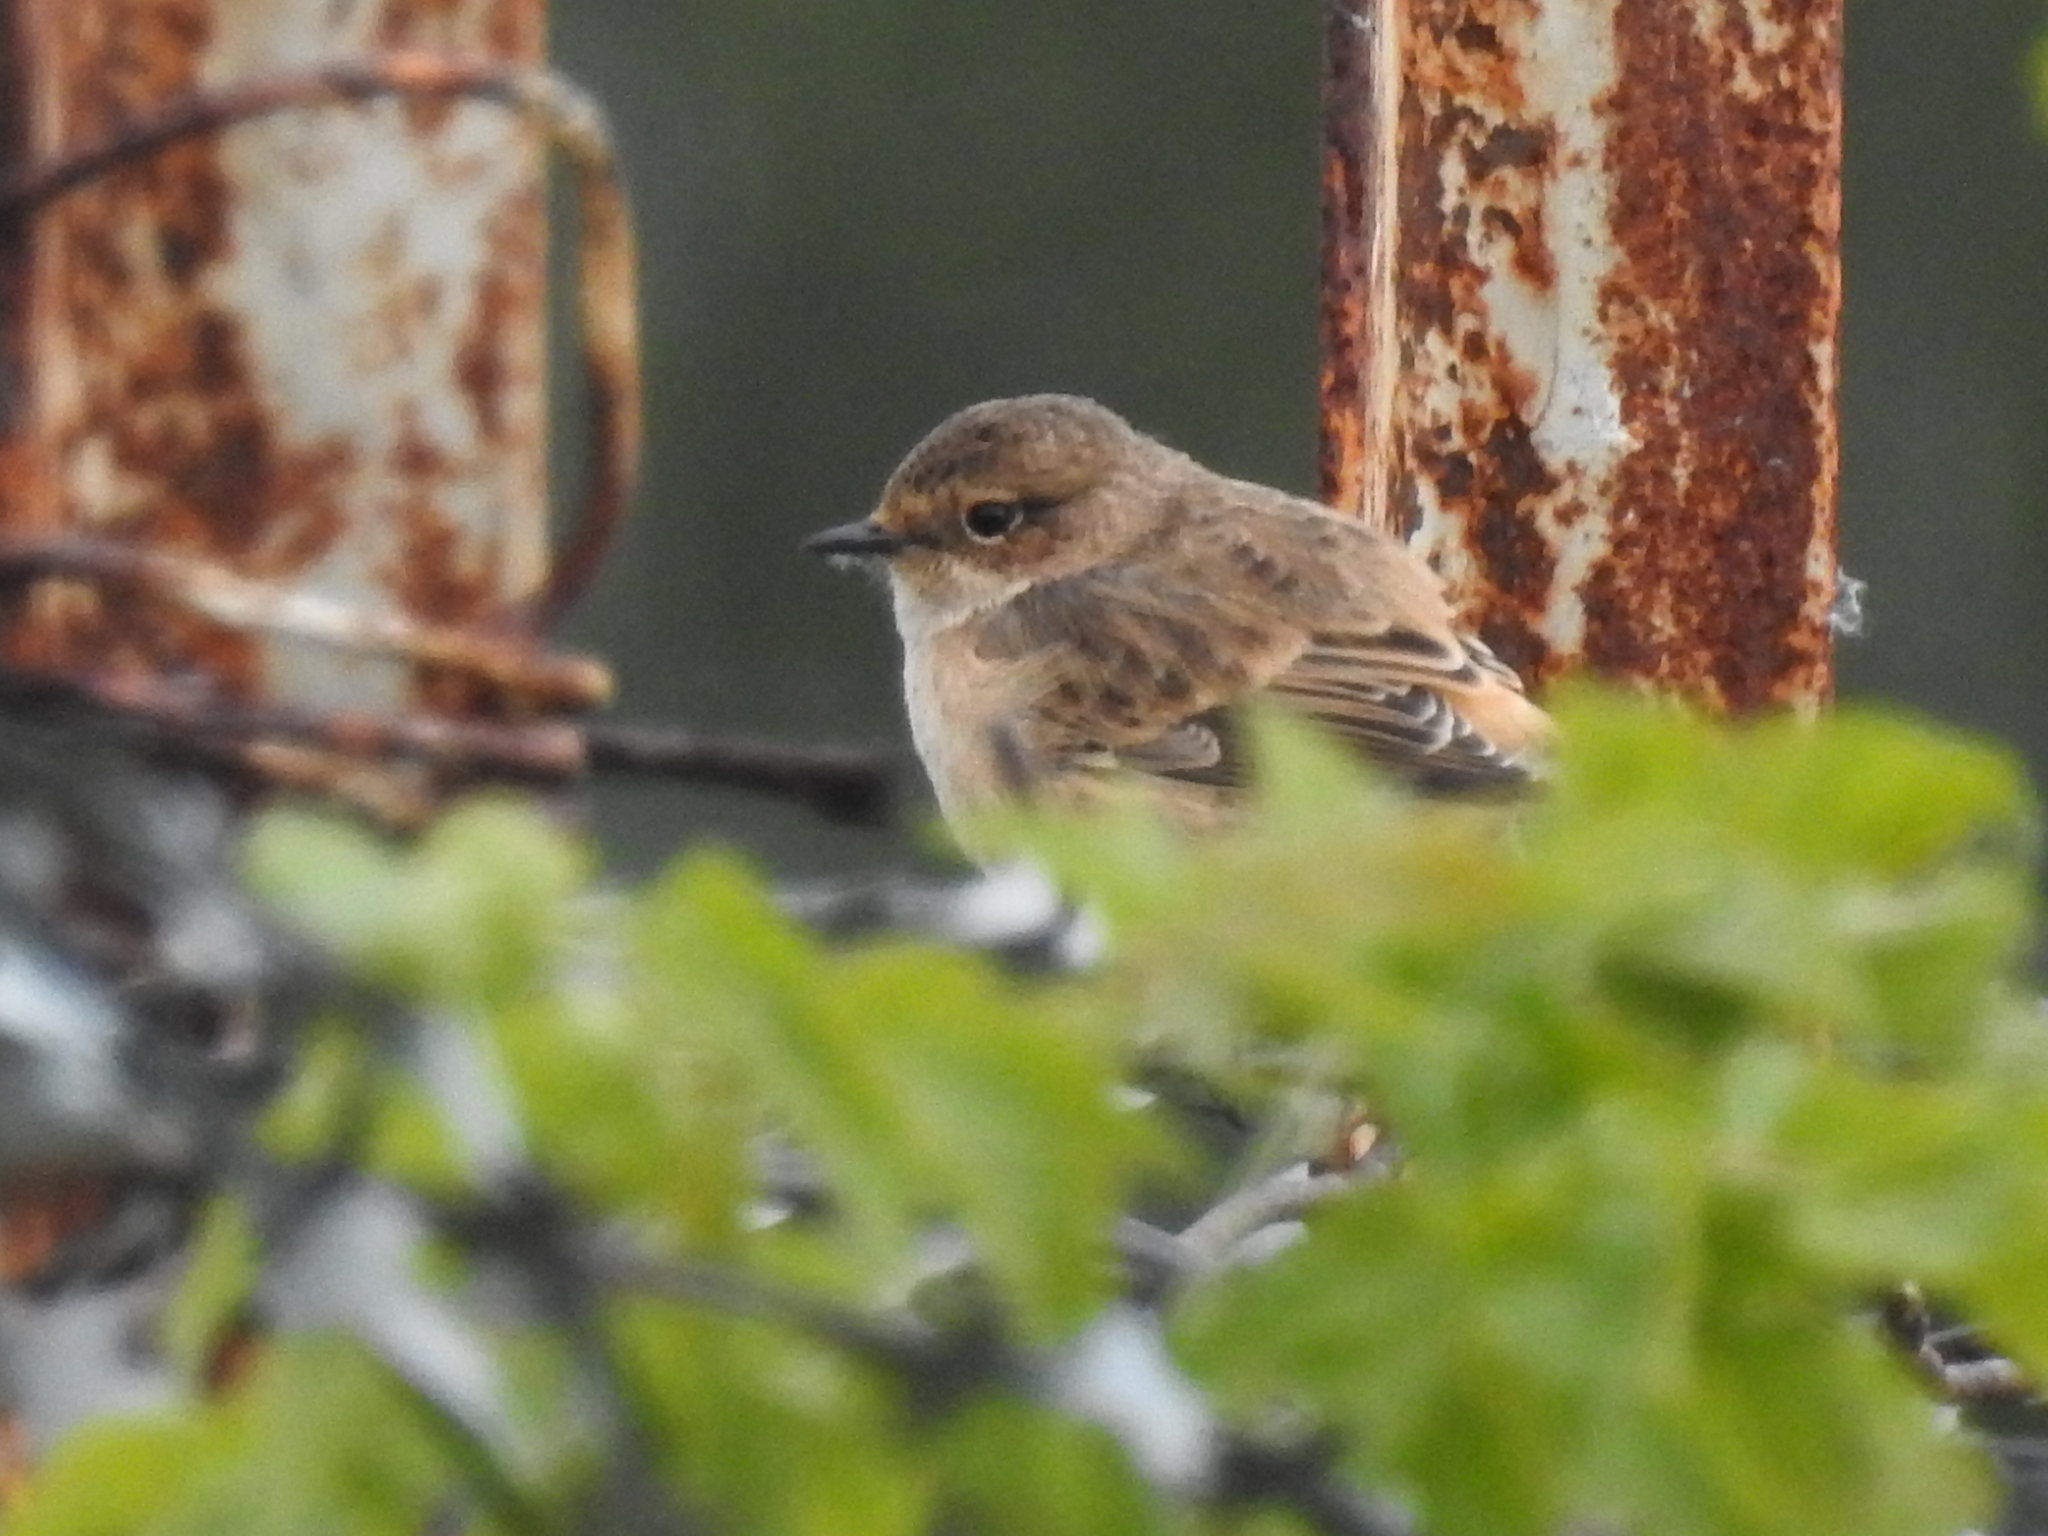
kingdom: Animalia
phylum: Chordata
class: Aves
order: Passeriformes
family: Muscicapidae
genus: Saxicola
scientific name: Saxicola maurus
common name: Siberian stonechat
